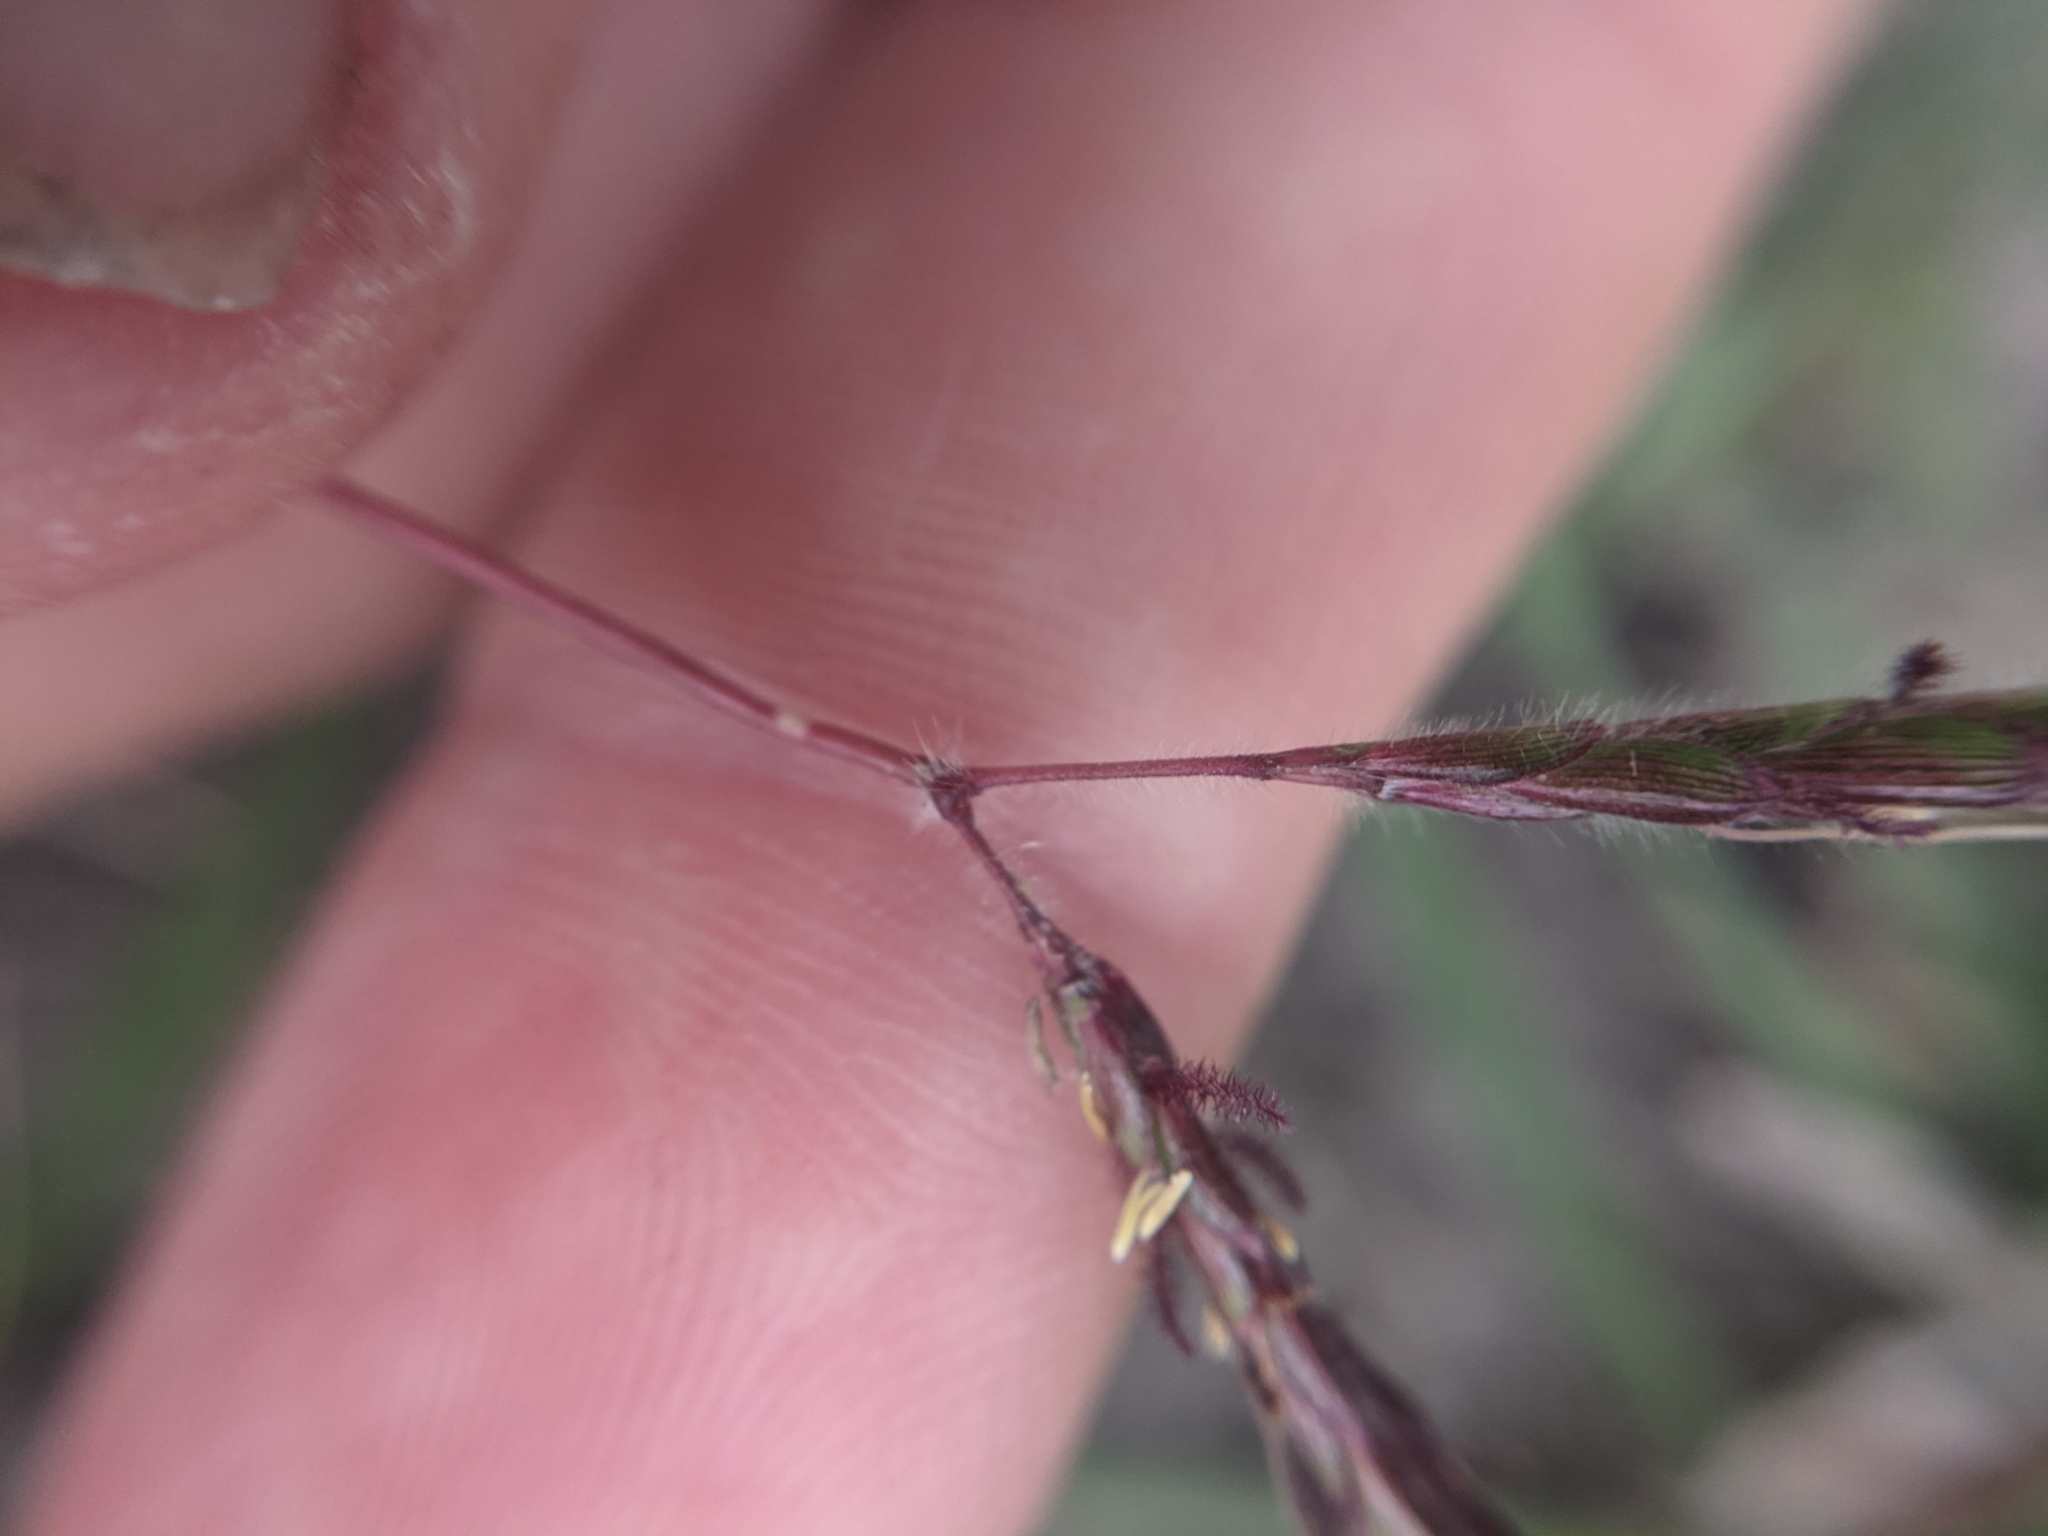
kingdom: Plantae
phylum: Tracheophyta
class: Liliopsida
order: Poales
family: Poaceae
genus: Dichanthium
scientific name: Dichanthium aristatum
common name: Angleton bluestem
